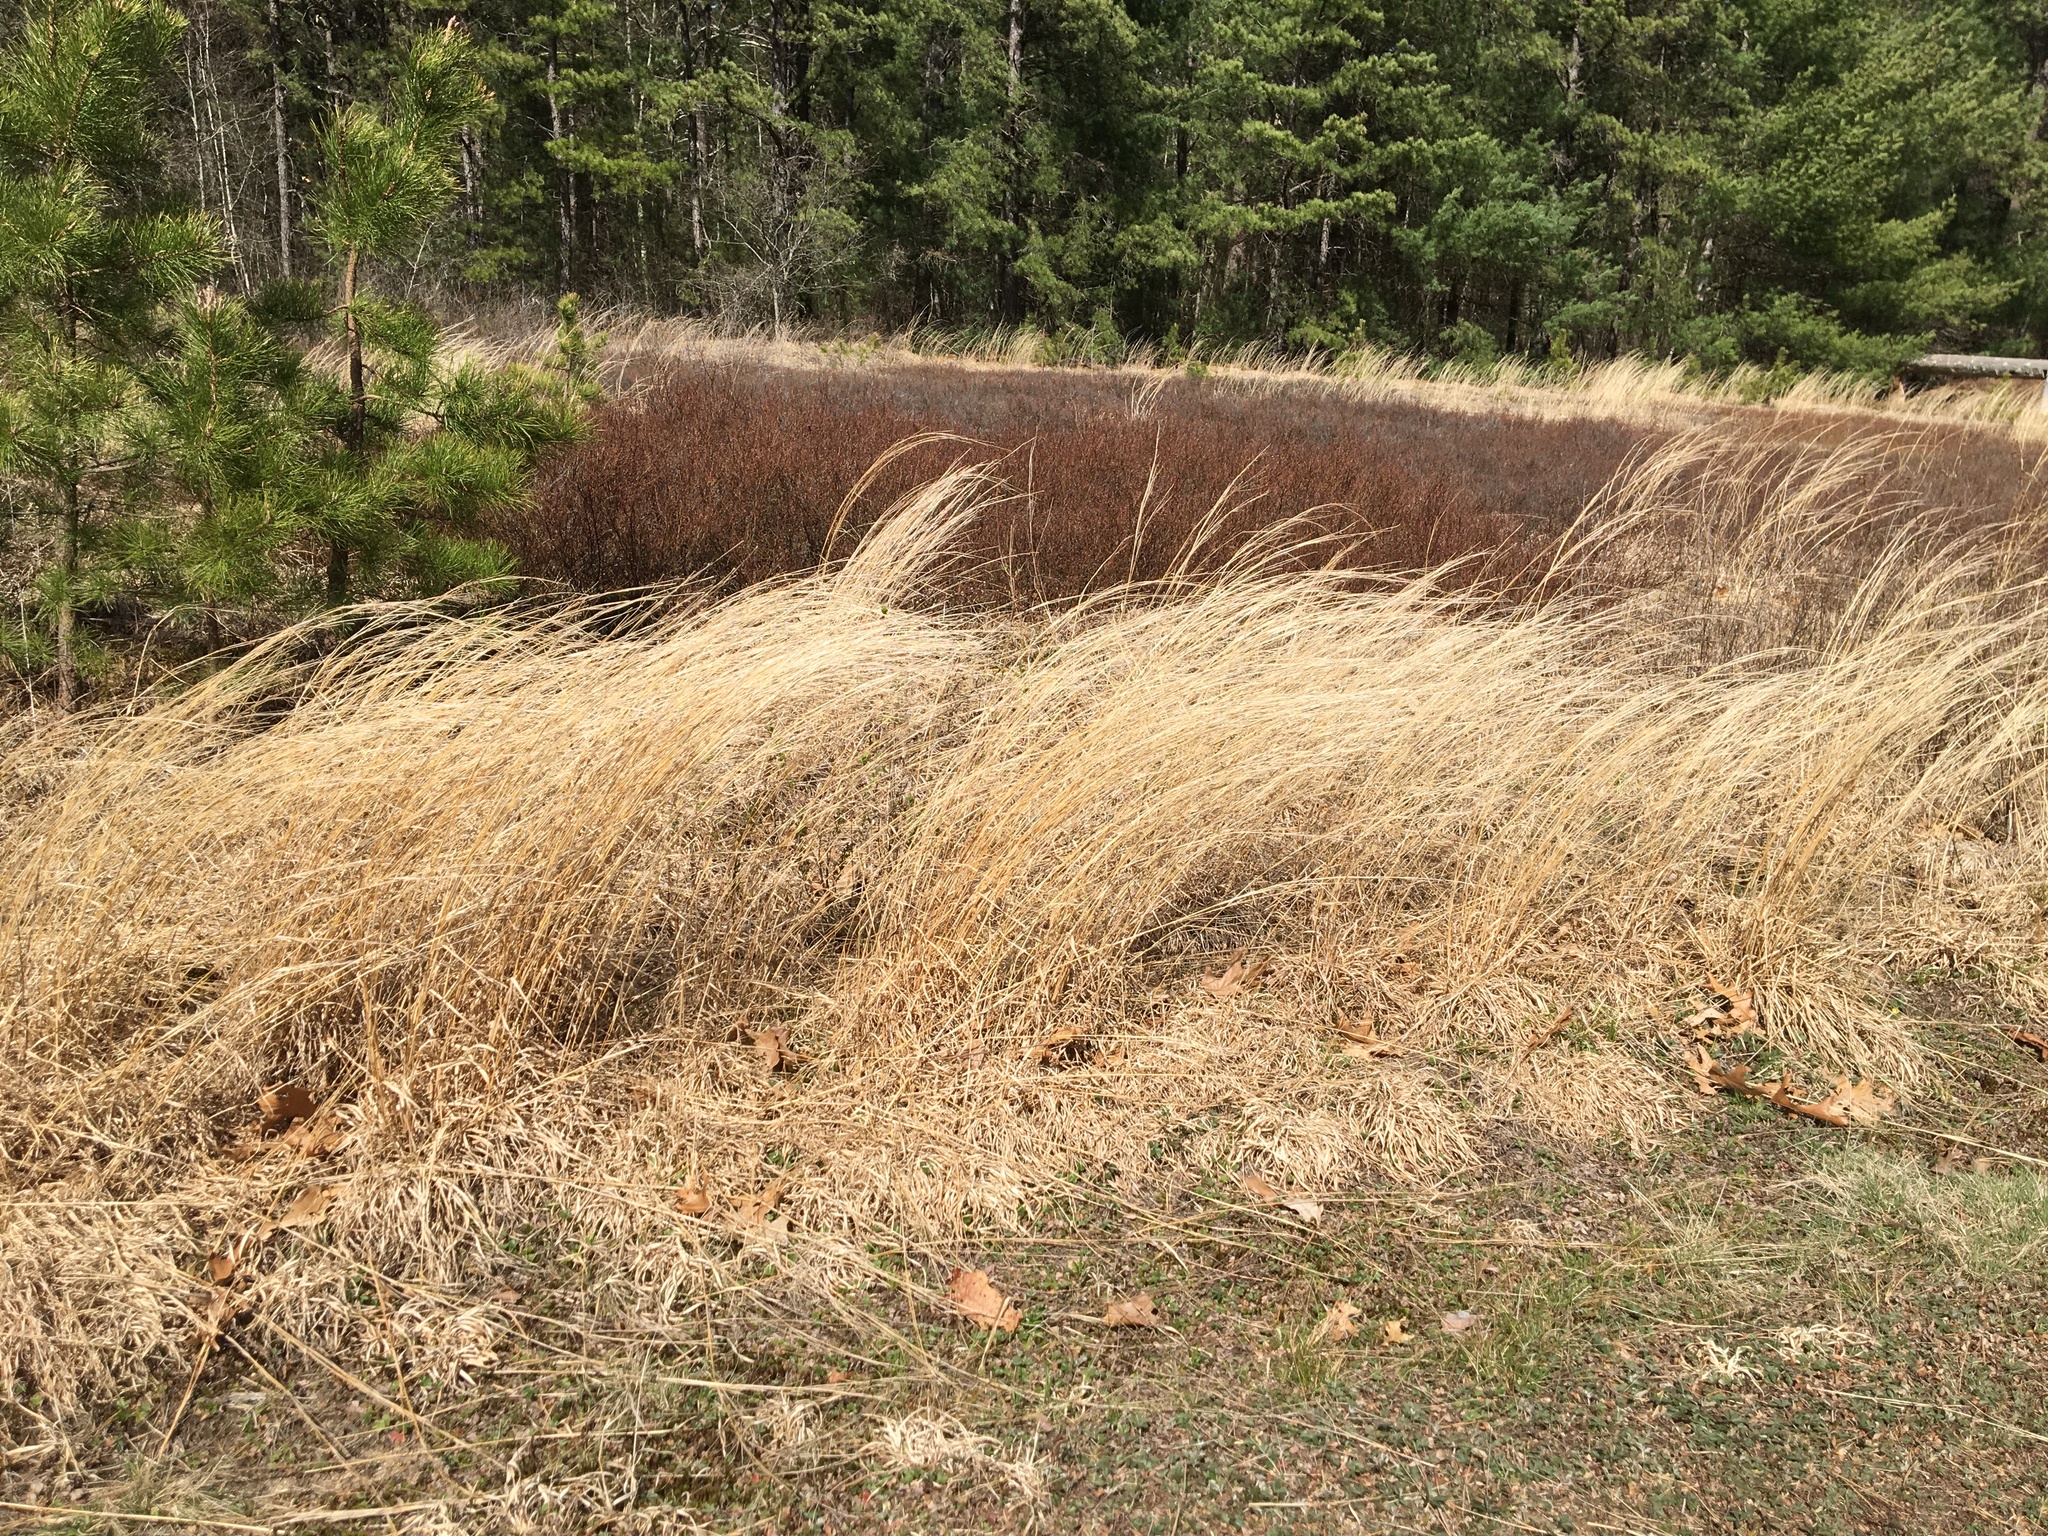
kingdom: Plantae
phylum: Tracheophyta
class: Liliopsida
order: Poales
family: Poaceae
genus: Schizachyrium
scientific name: Schizachyrium scoparium
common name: Little bluestem
